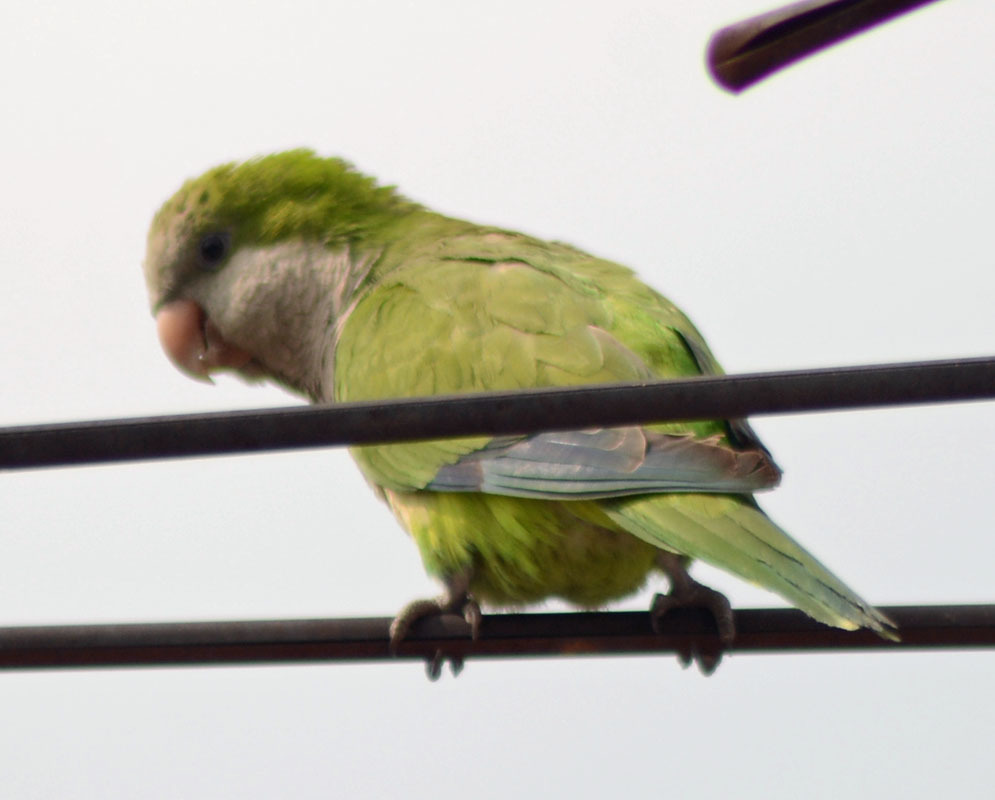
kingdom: Animalia
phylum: Chordata
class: Aves
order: Psittaciformes
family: Psittacidae
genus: Myiopsitta
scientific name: Myiopsitta monachus
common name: Monk parakeet
